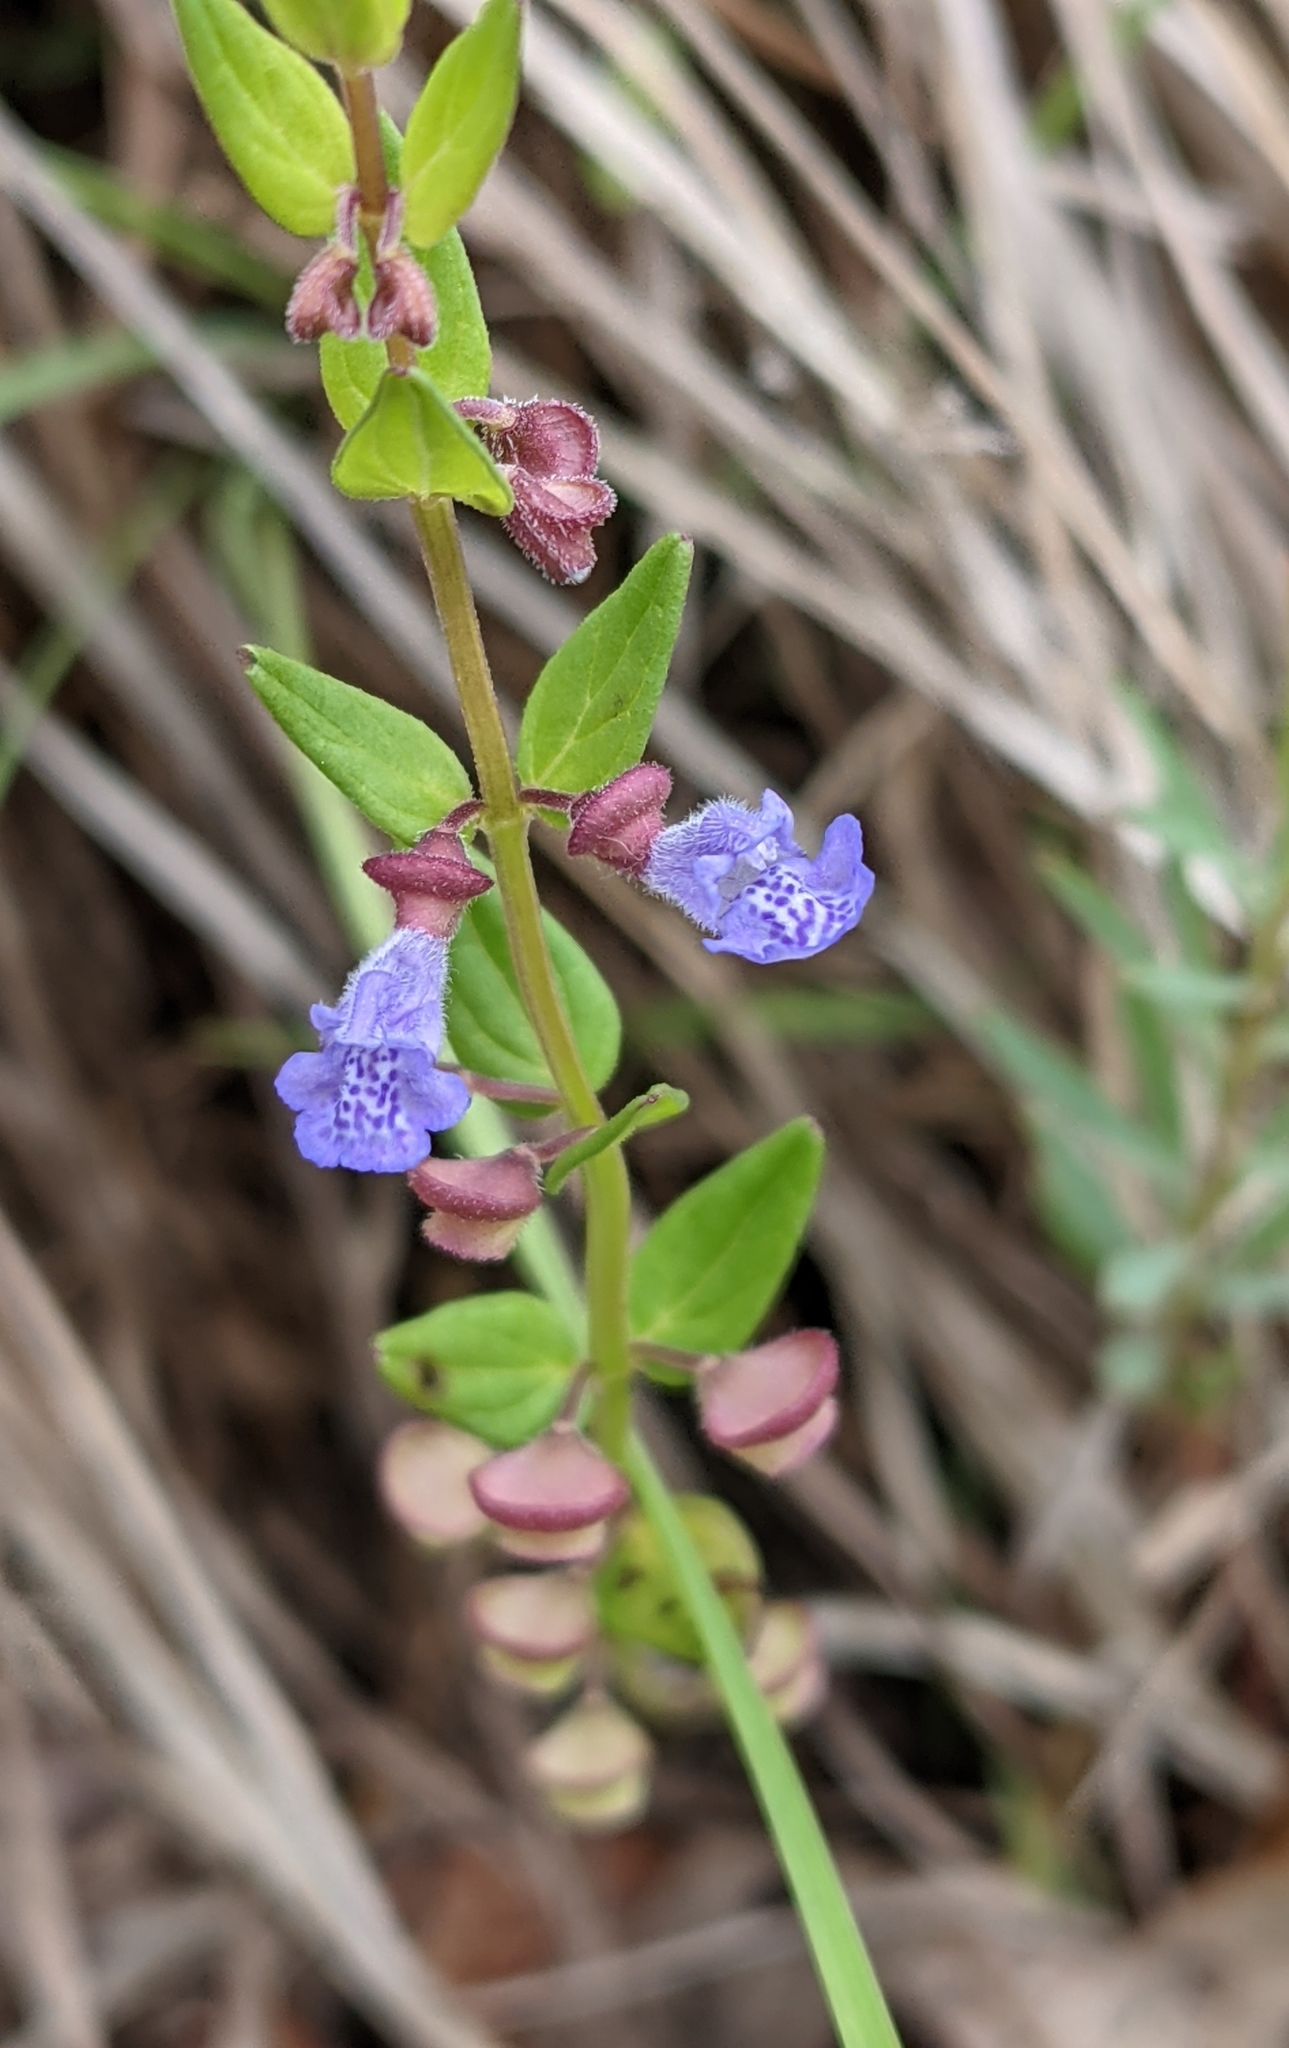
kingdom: Plantae
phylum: Tracheophyta
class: Magnoliopsida
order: Lamiales
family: Lamiaceae
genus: Scutellaria
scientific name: Scutellaria parvula
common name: Little scullcap
